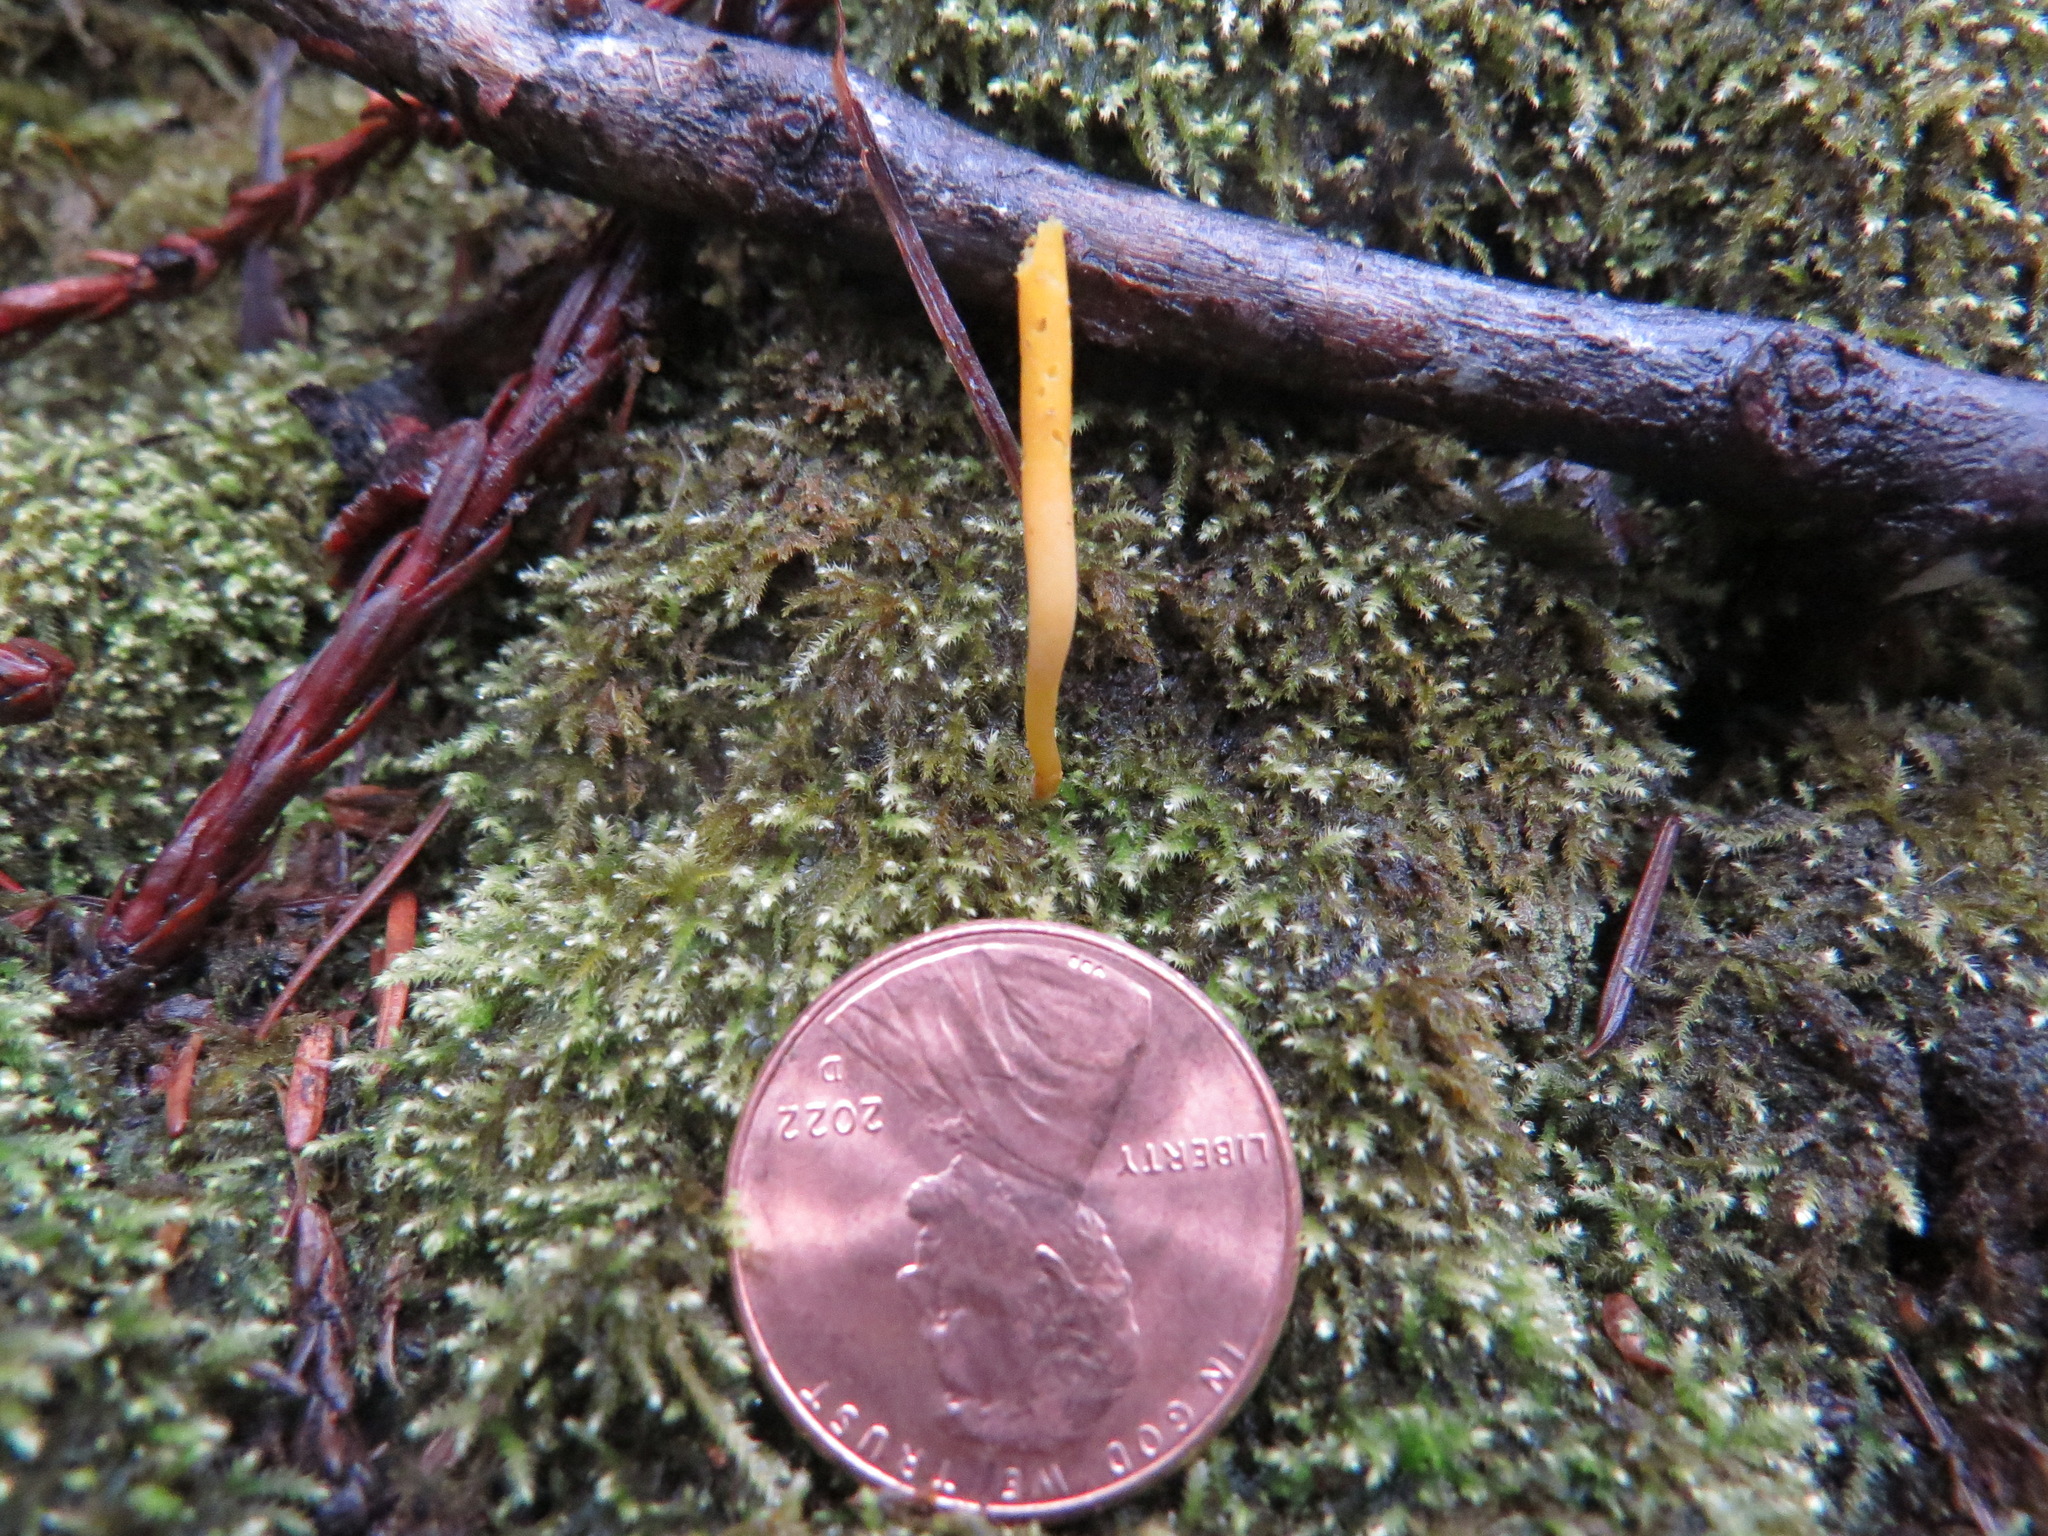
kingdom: Fungi
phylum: Basidiomycota
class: Agaricomycetes
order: Agaricales
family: Clavariaceae
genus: Clavulinopsis
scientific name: Clavulinopsis laeticolor
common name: Handsome club
